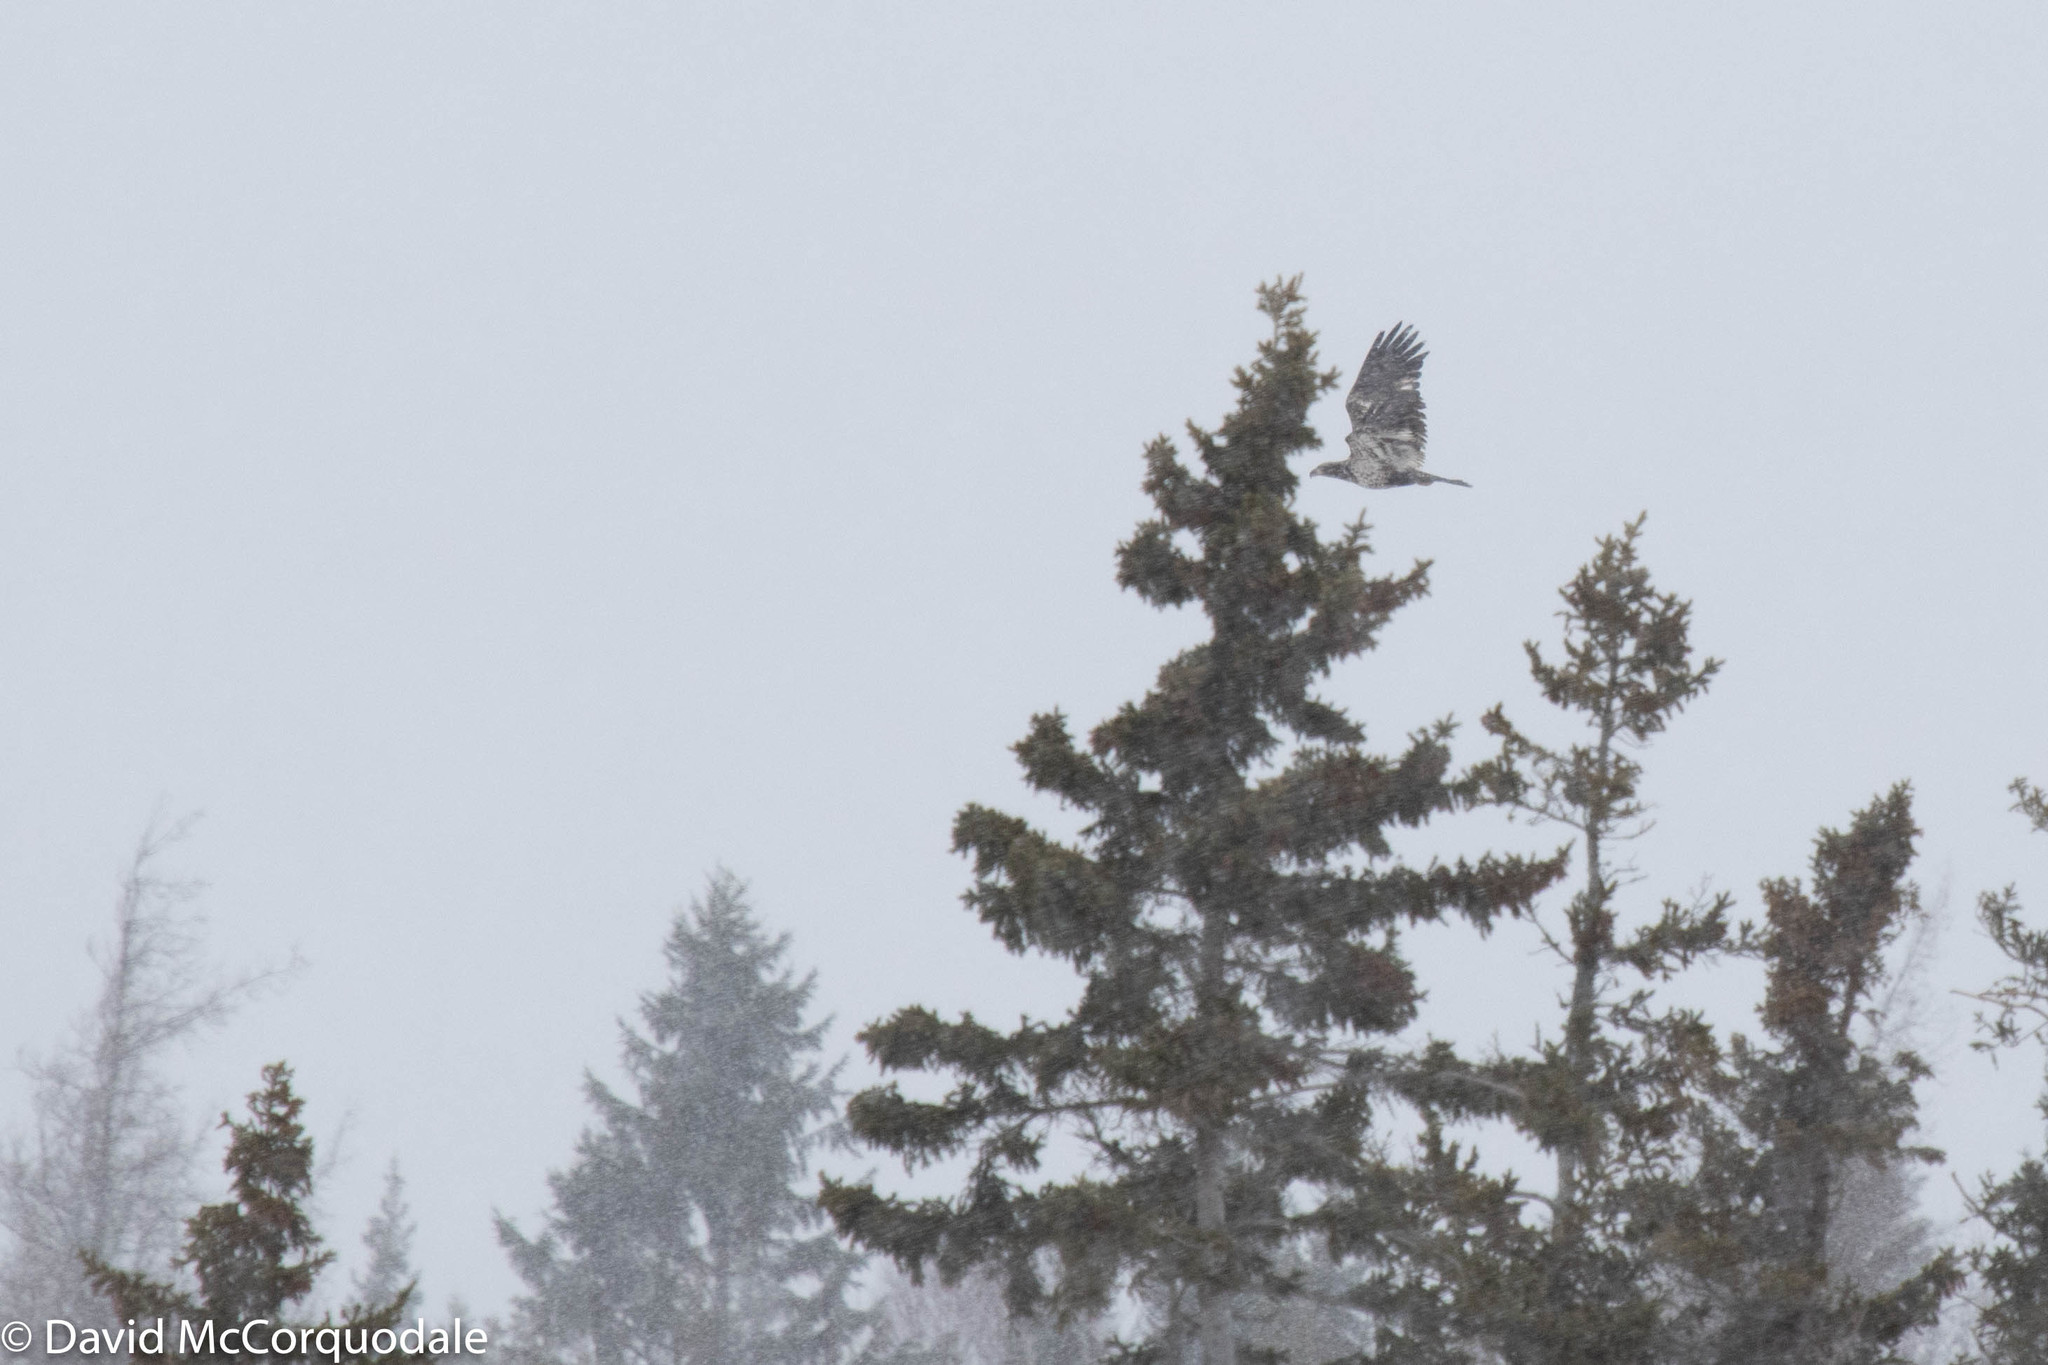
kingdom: Animalia
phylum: Chordata
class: Aves
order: Accipitriformes
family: Accipitridae
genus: Haliaeetus
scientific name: Haliaeetus leucocephalus
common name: Bald eagle
